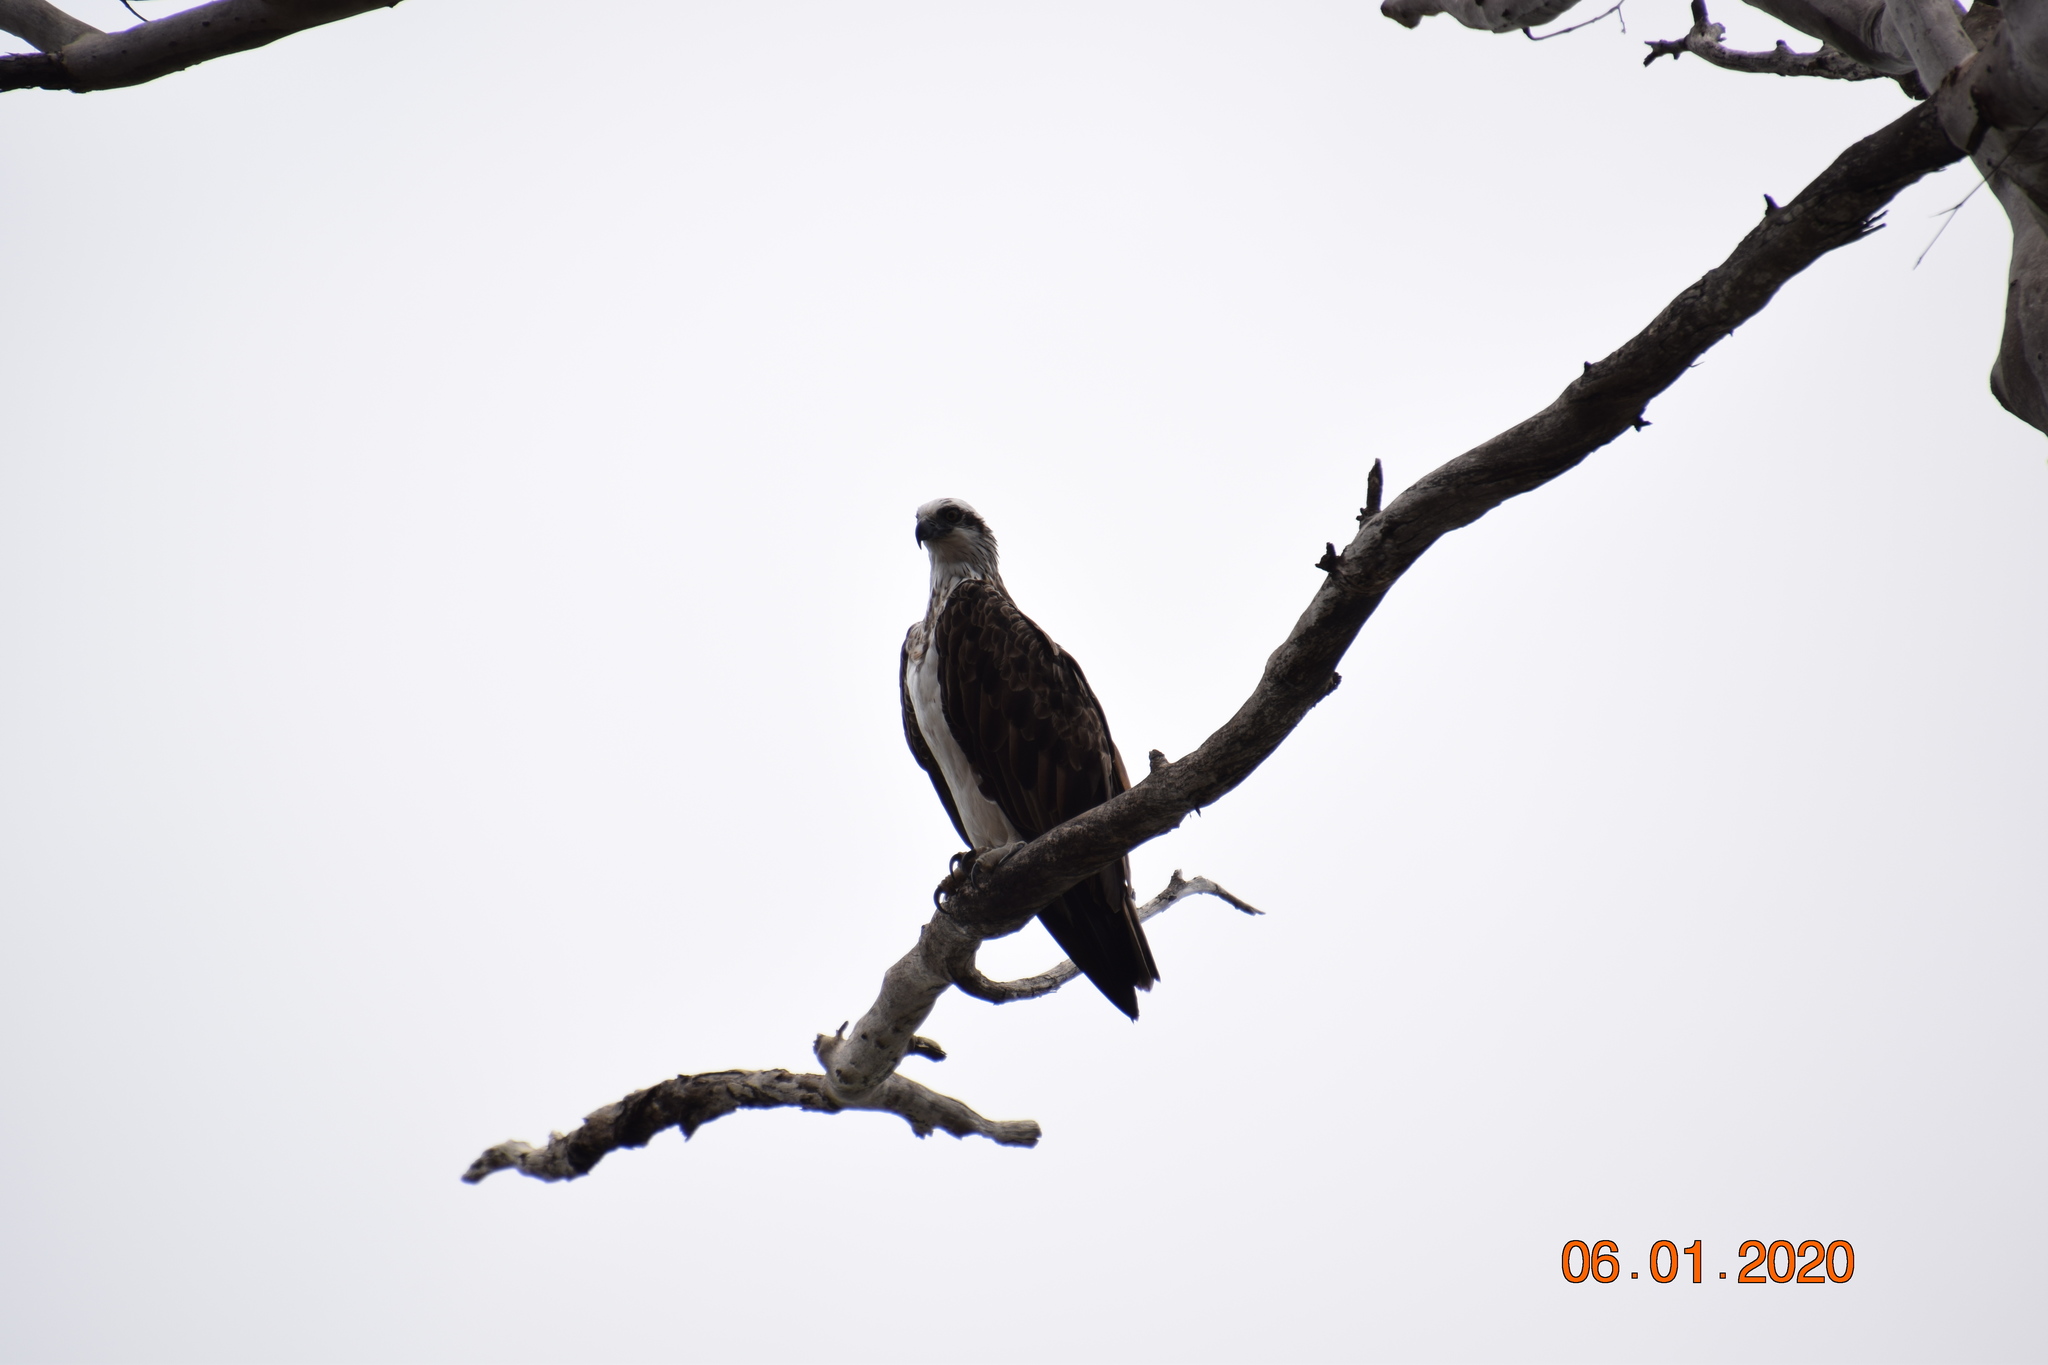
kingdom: Animalia
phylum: Chordata
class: Aves
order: Accipitriformes
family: Pandionidae
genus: Pandion
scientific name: Pandion cristatus
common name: Eastern osprey
